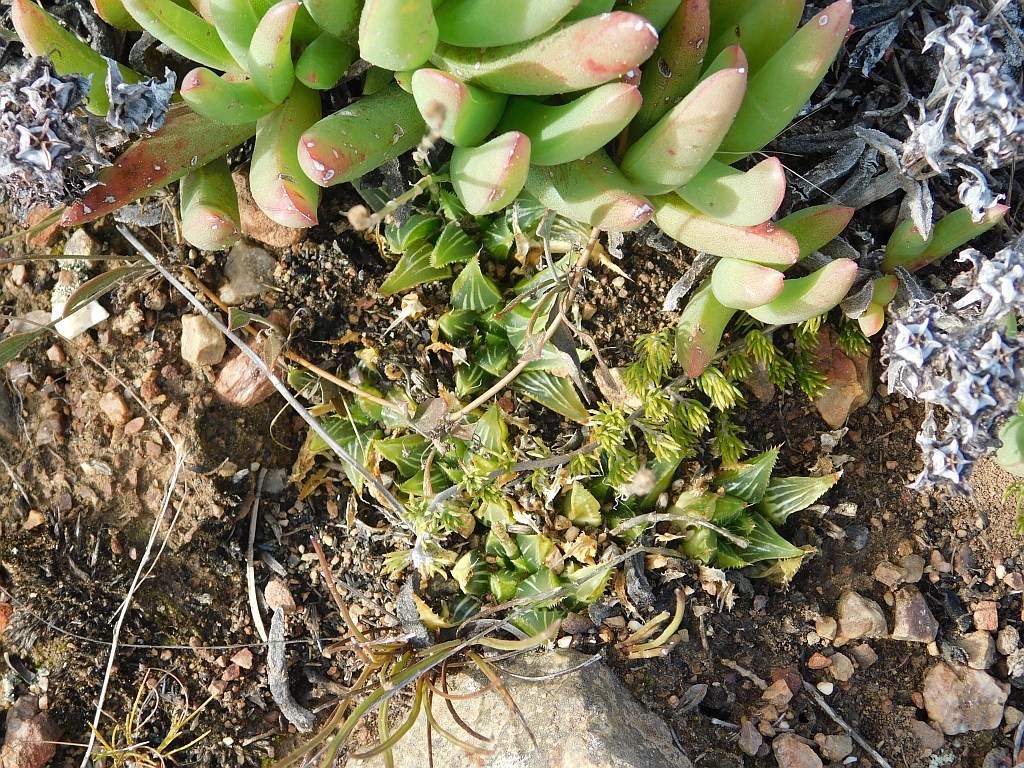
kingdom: Plantae
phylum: Tracheophyta
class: Liliopsida
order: Asparagales
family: Asphodelaceae
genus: Haworthia
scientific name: Haworthia mirabilis
